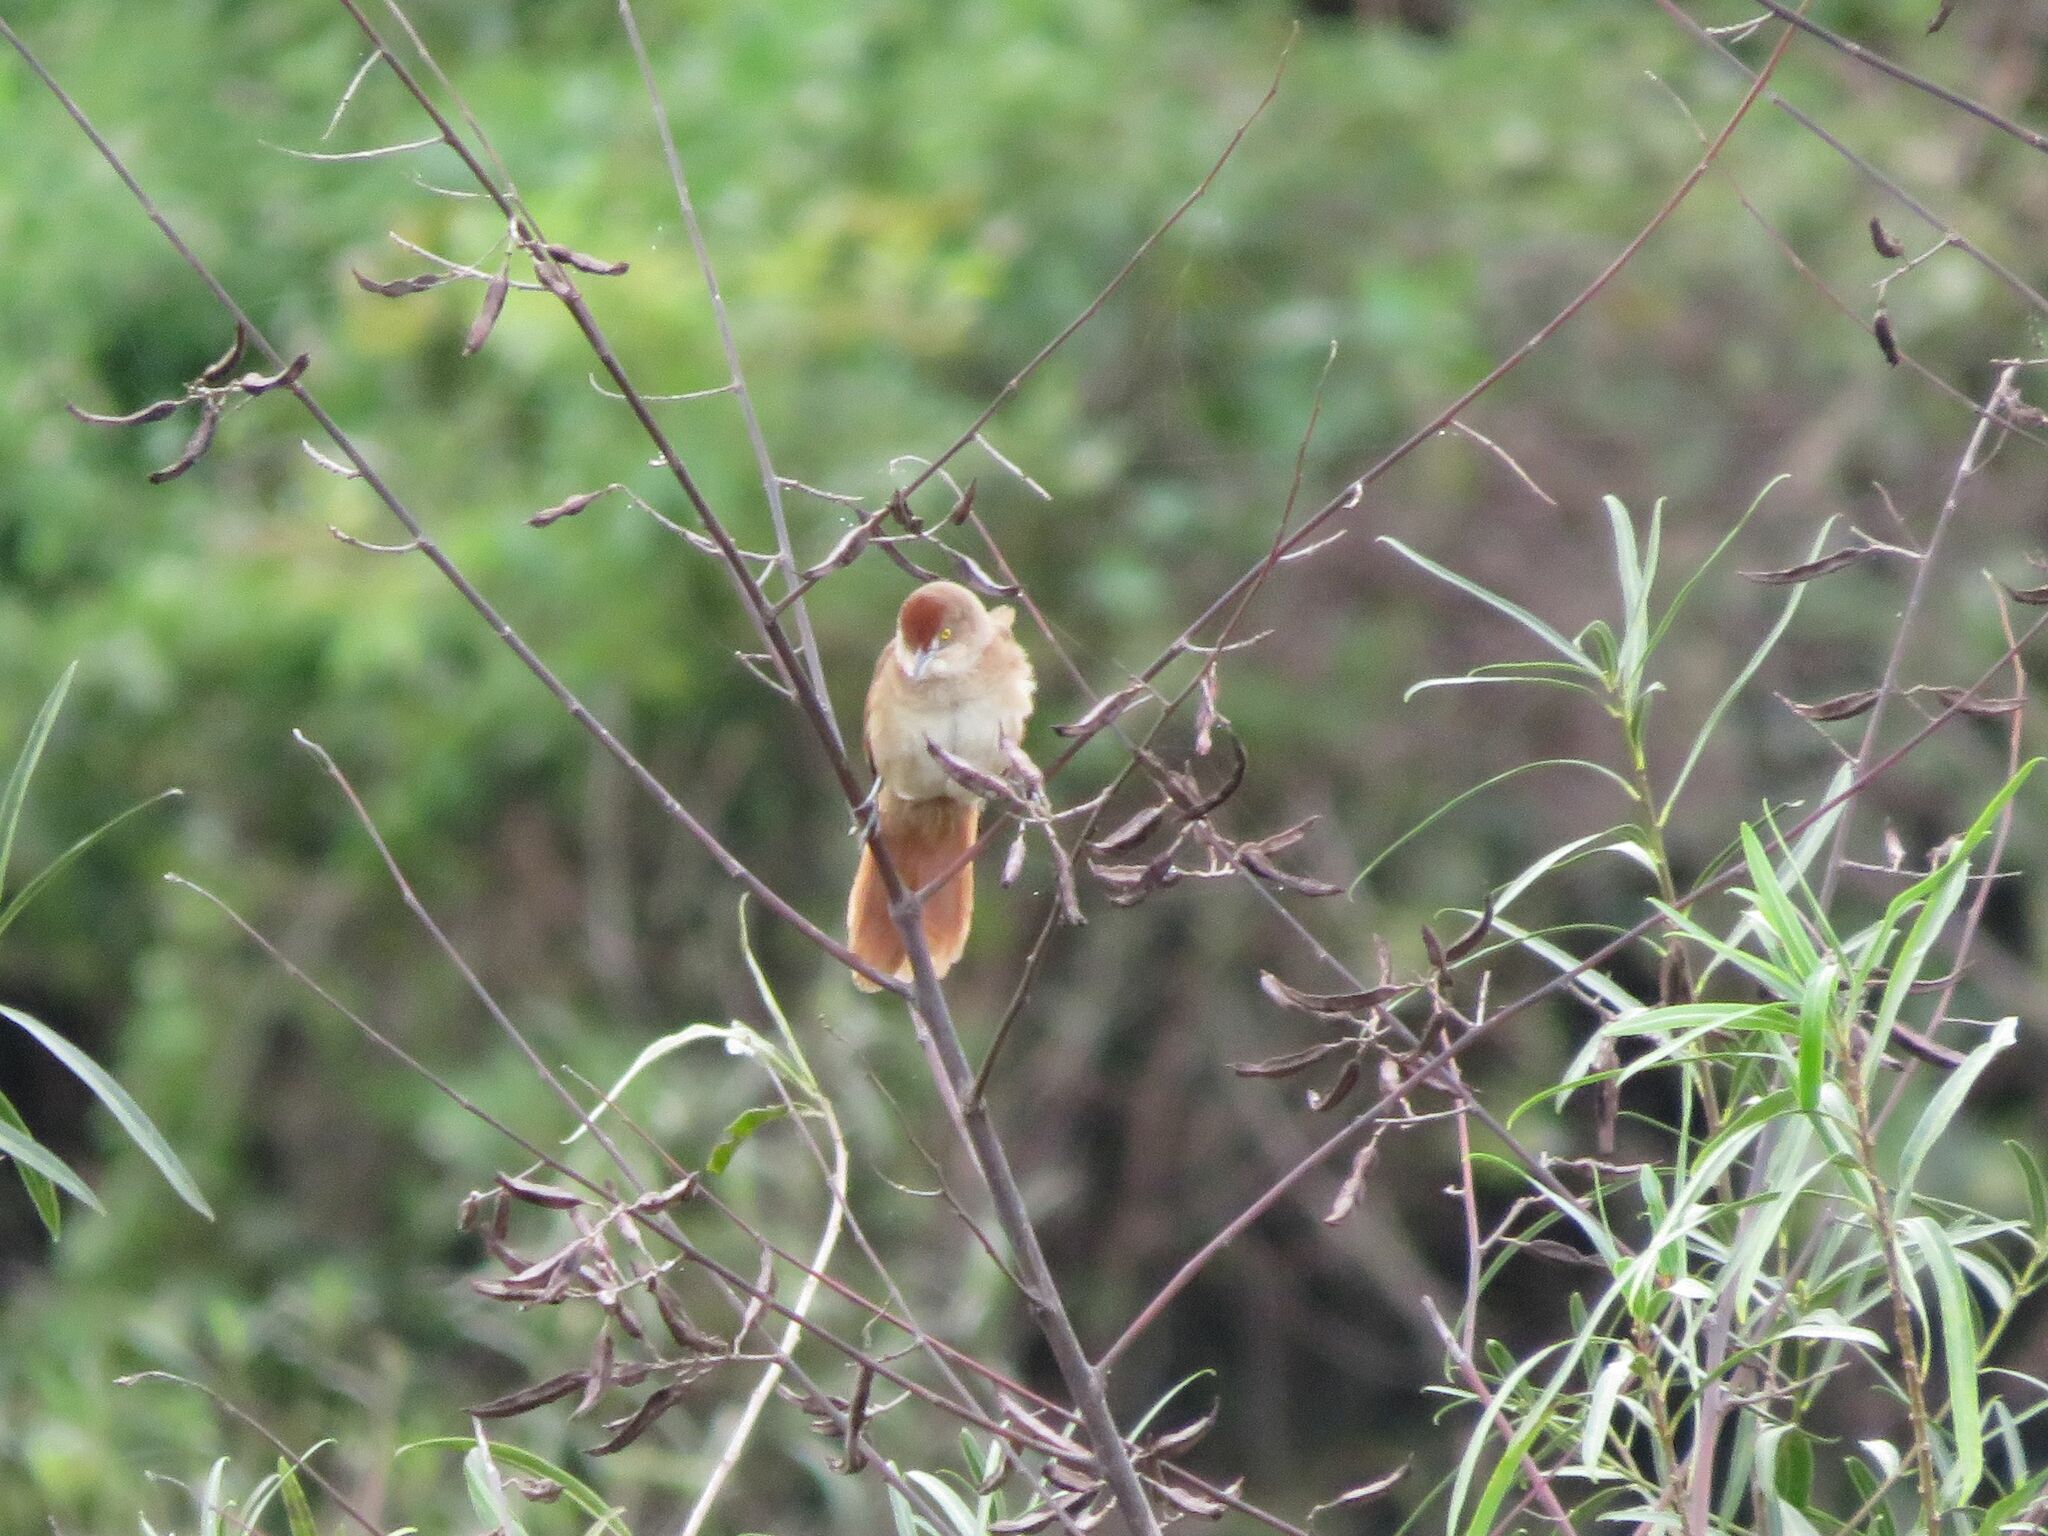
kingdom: Animalia
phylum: Chordata
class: Aves
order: Passeriformes
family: Furnariidae
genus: Phacellodomus
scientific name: Phacellodomus ruber
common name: Greater thornbird
